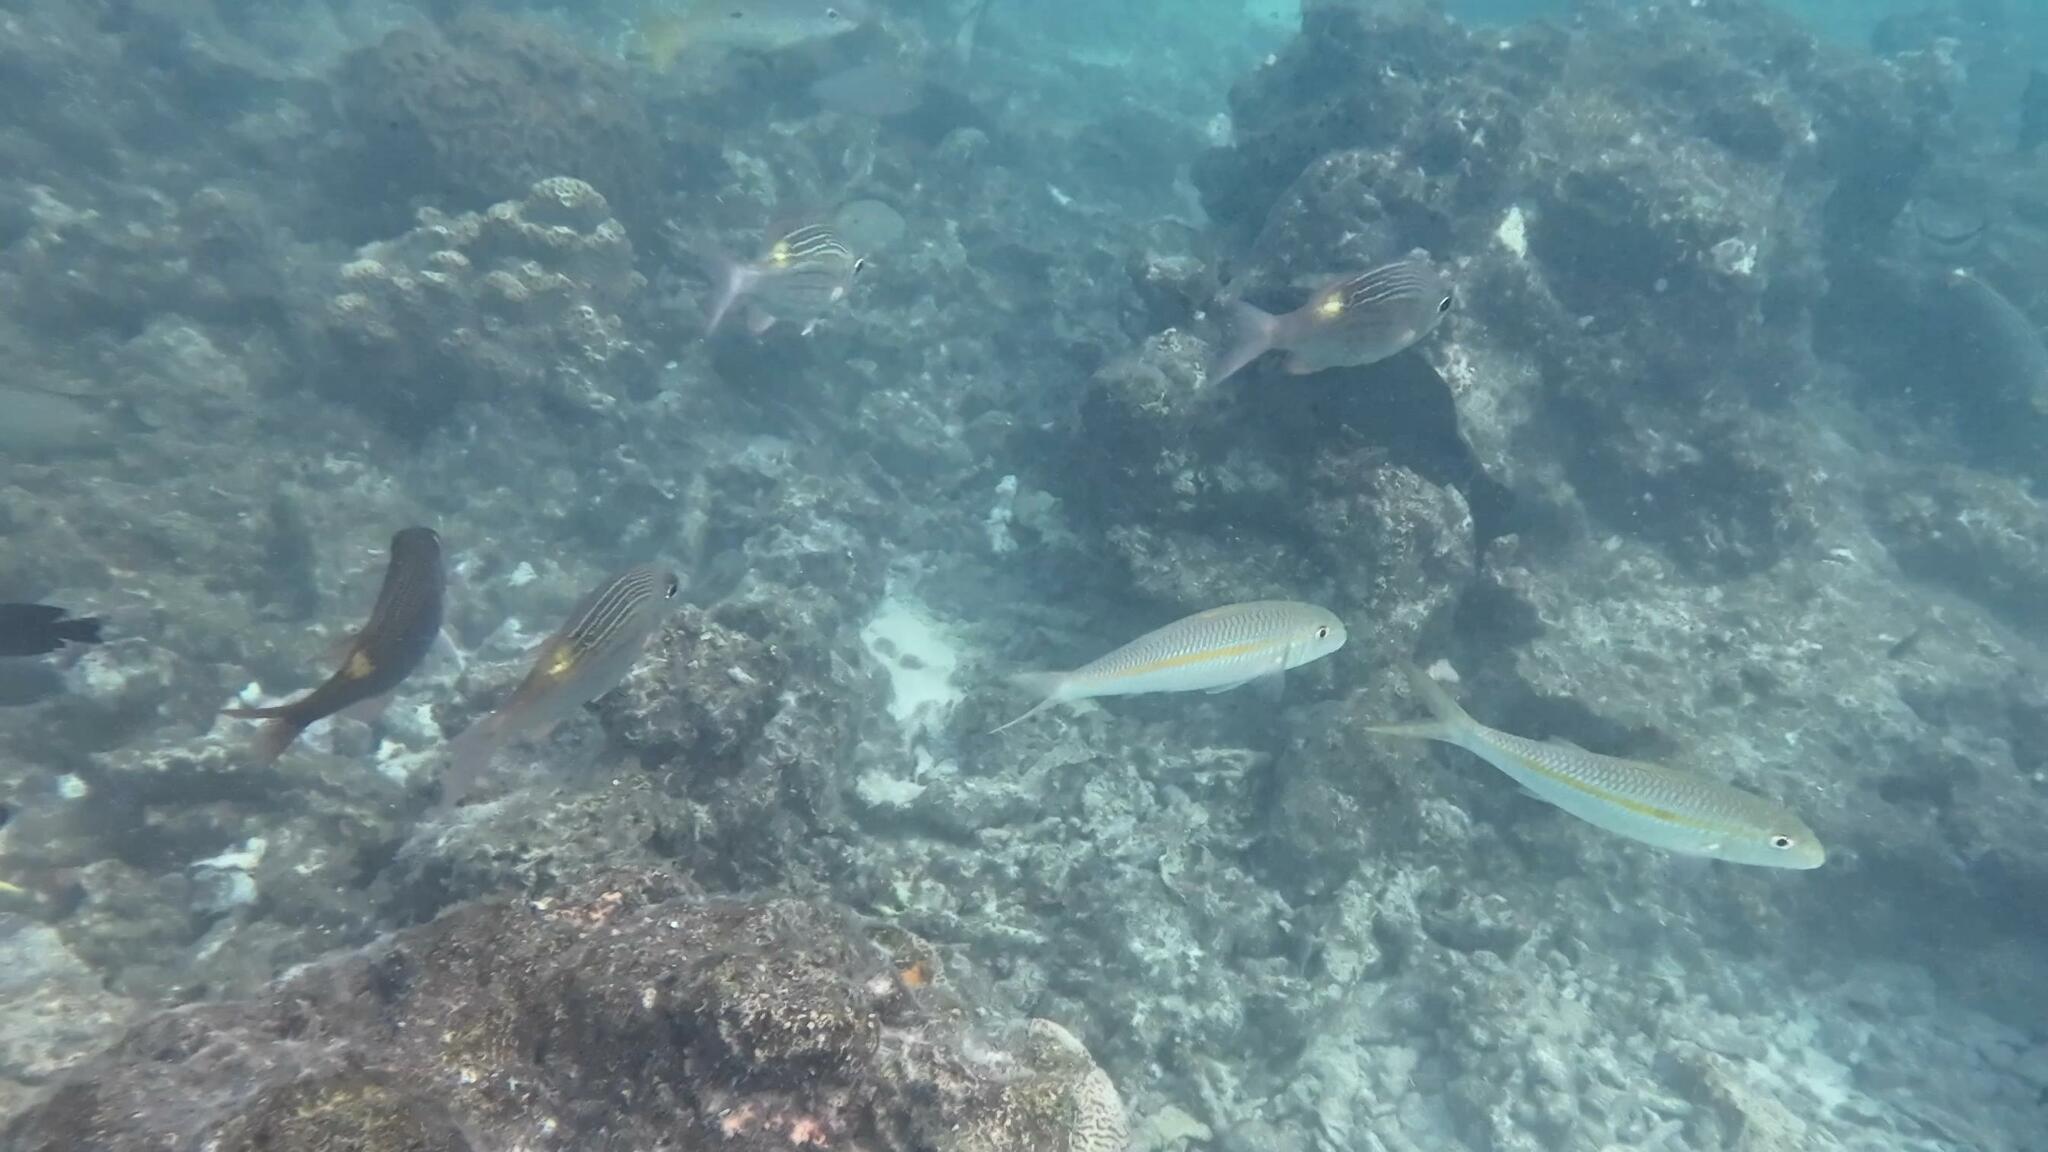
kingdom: Animalia
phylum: Chordata
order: Perciformes
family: Mullidae
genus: Mulloidichthys
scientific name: Mulloidichthys flavolineatus
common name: Yellowstripe goatfish
